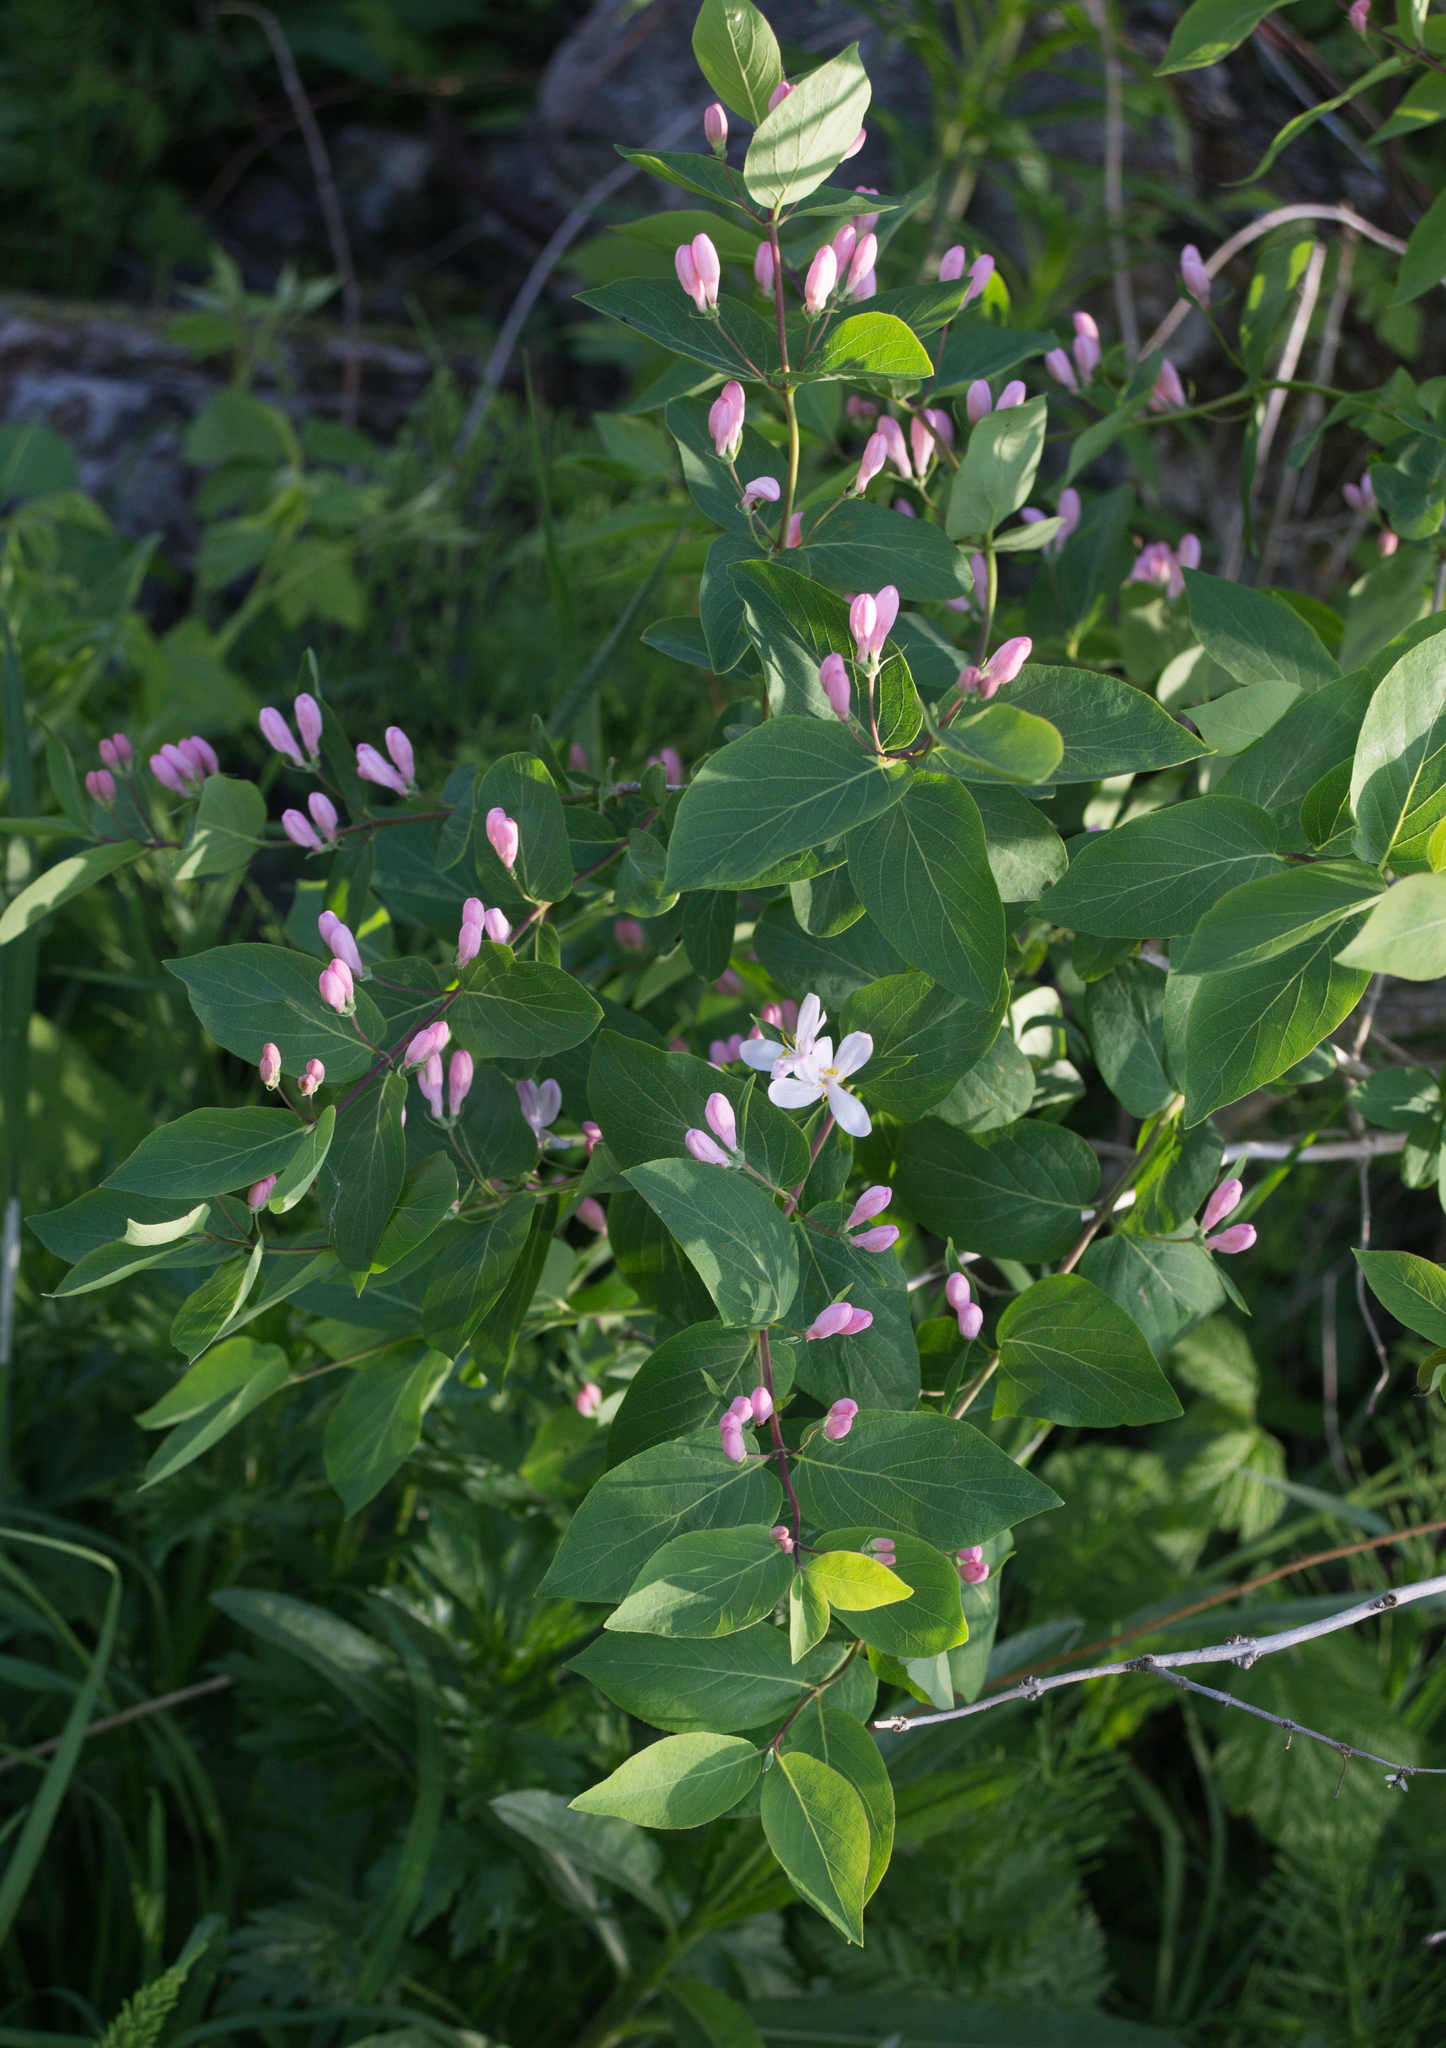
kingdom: Plantae
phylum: Tracheophyta
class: Magnoliopsida
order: Dipsacales
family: Caprifoliaceae
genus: Lonicera
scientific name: Lonicera tatarica
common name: Tatarian honeysuckle
